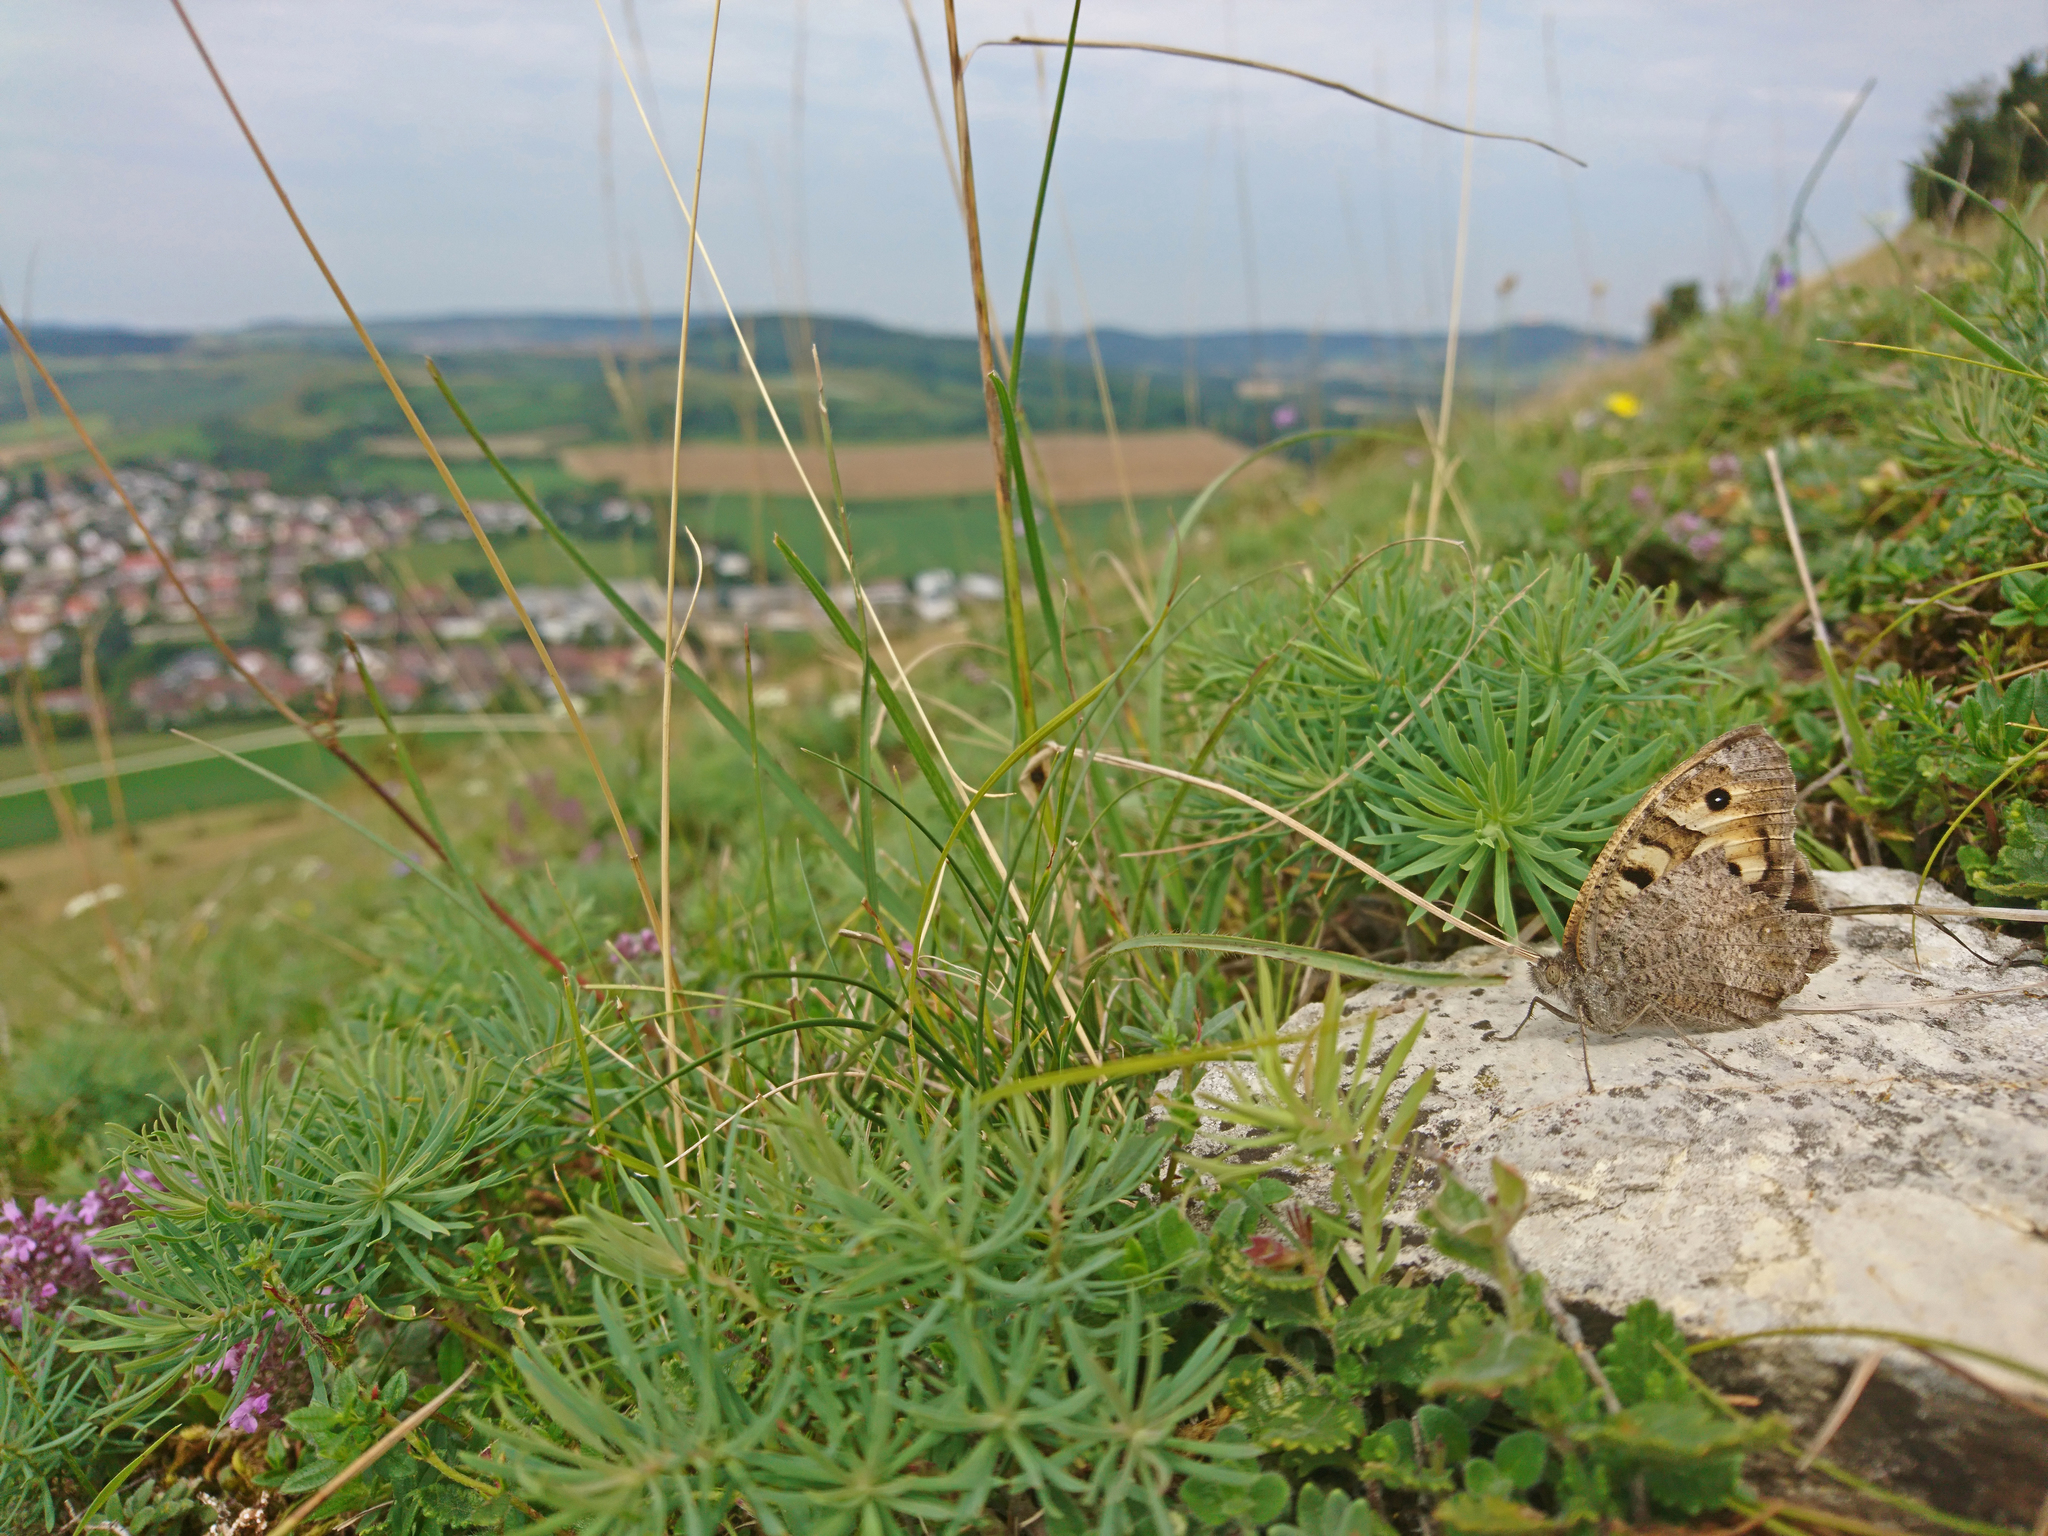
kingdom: Animalia
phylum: Arthropoda
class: Insecta
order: Lepidoptera
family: Nymphalidae
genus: Satyrus
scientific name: Satyrus briseis
